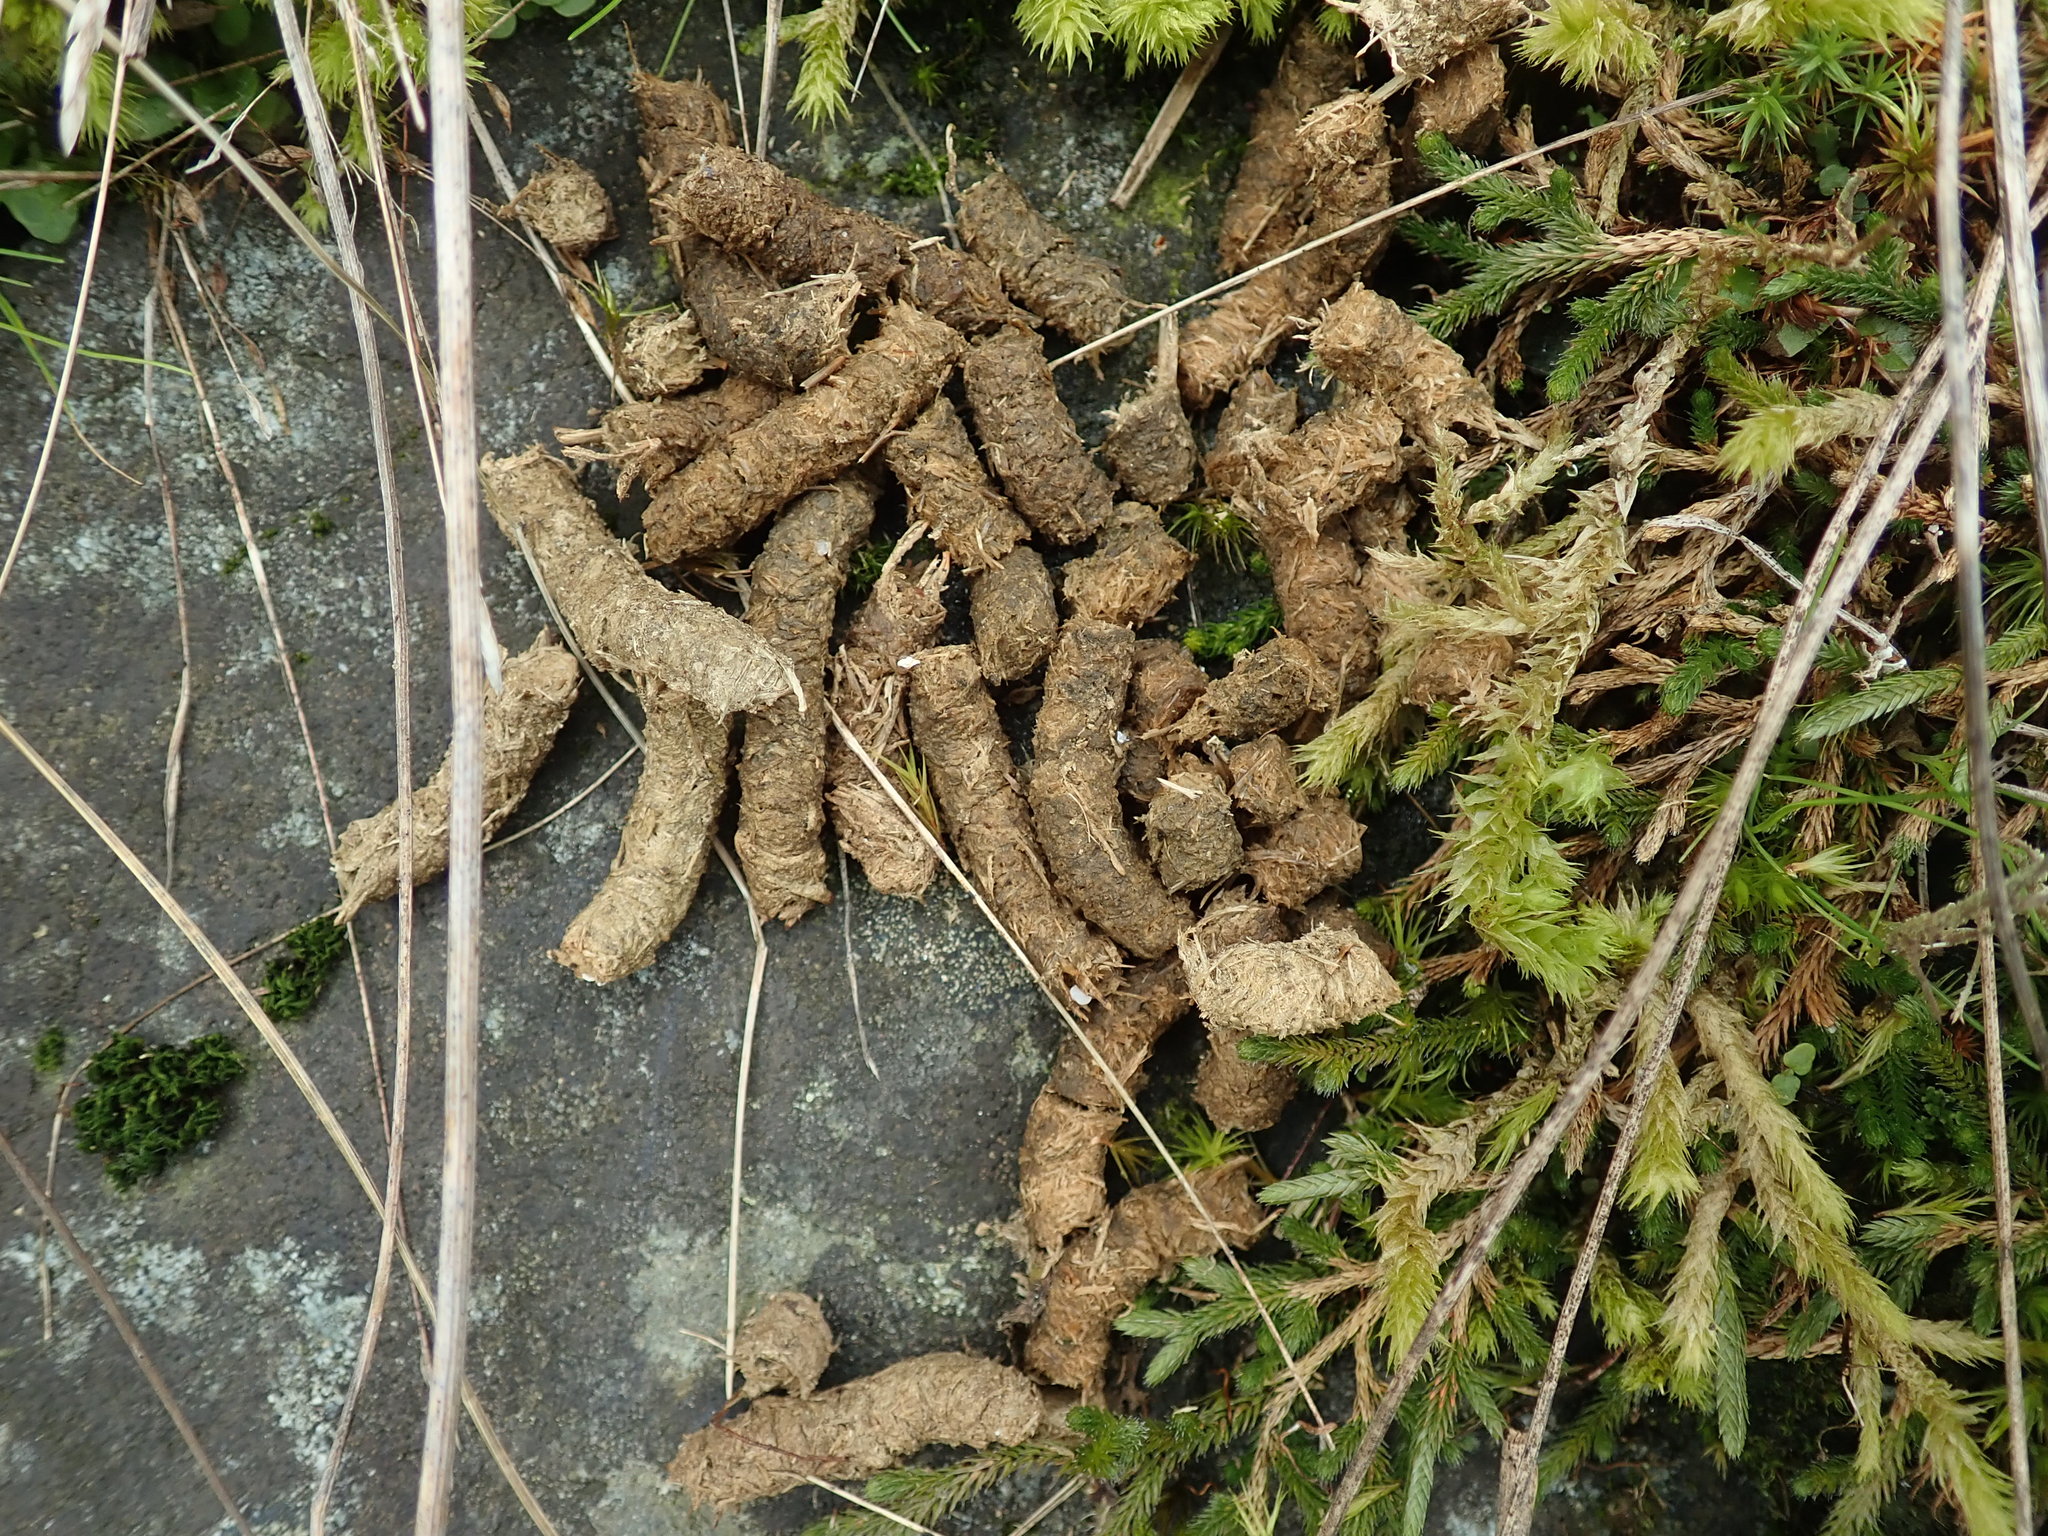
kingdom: Animalia
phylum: Chordata
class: Aves
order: Galliformes
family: Phasianidae
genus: Dendragapus
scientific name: Dendragapus fuliginosus
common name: Sooty grouse
